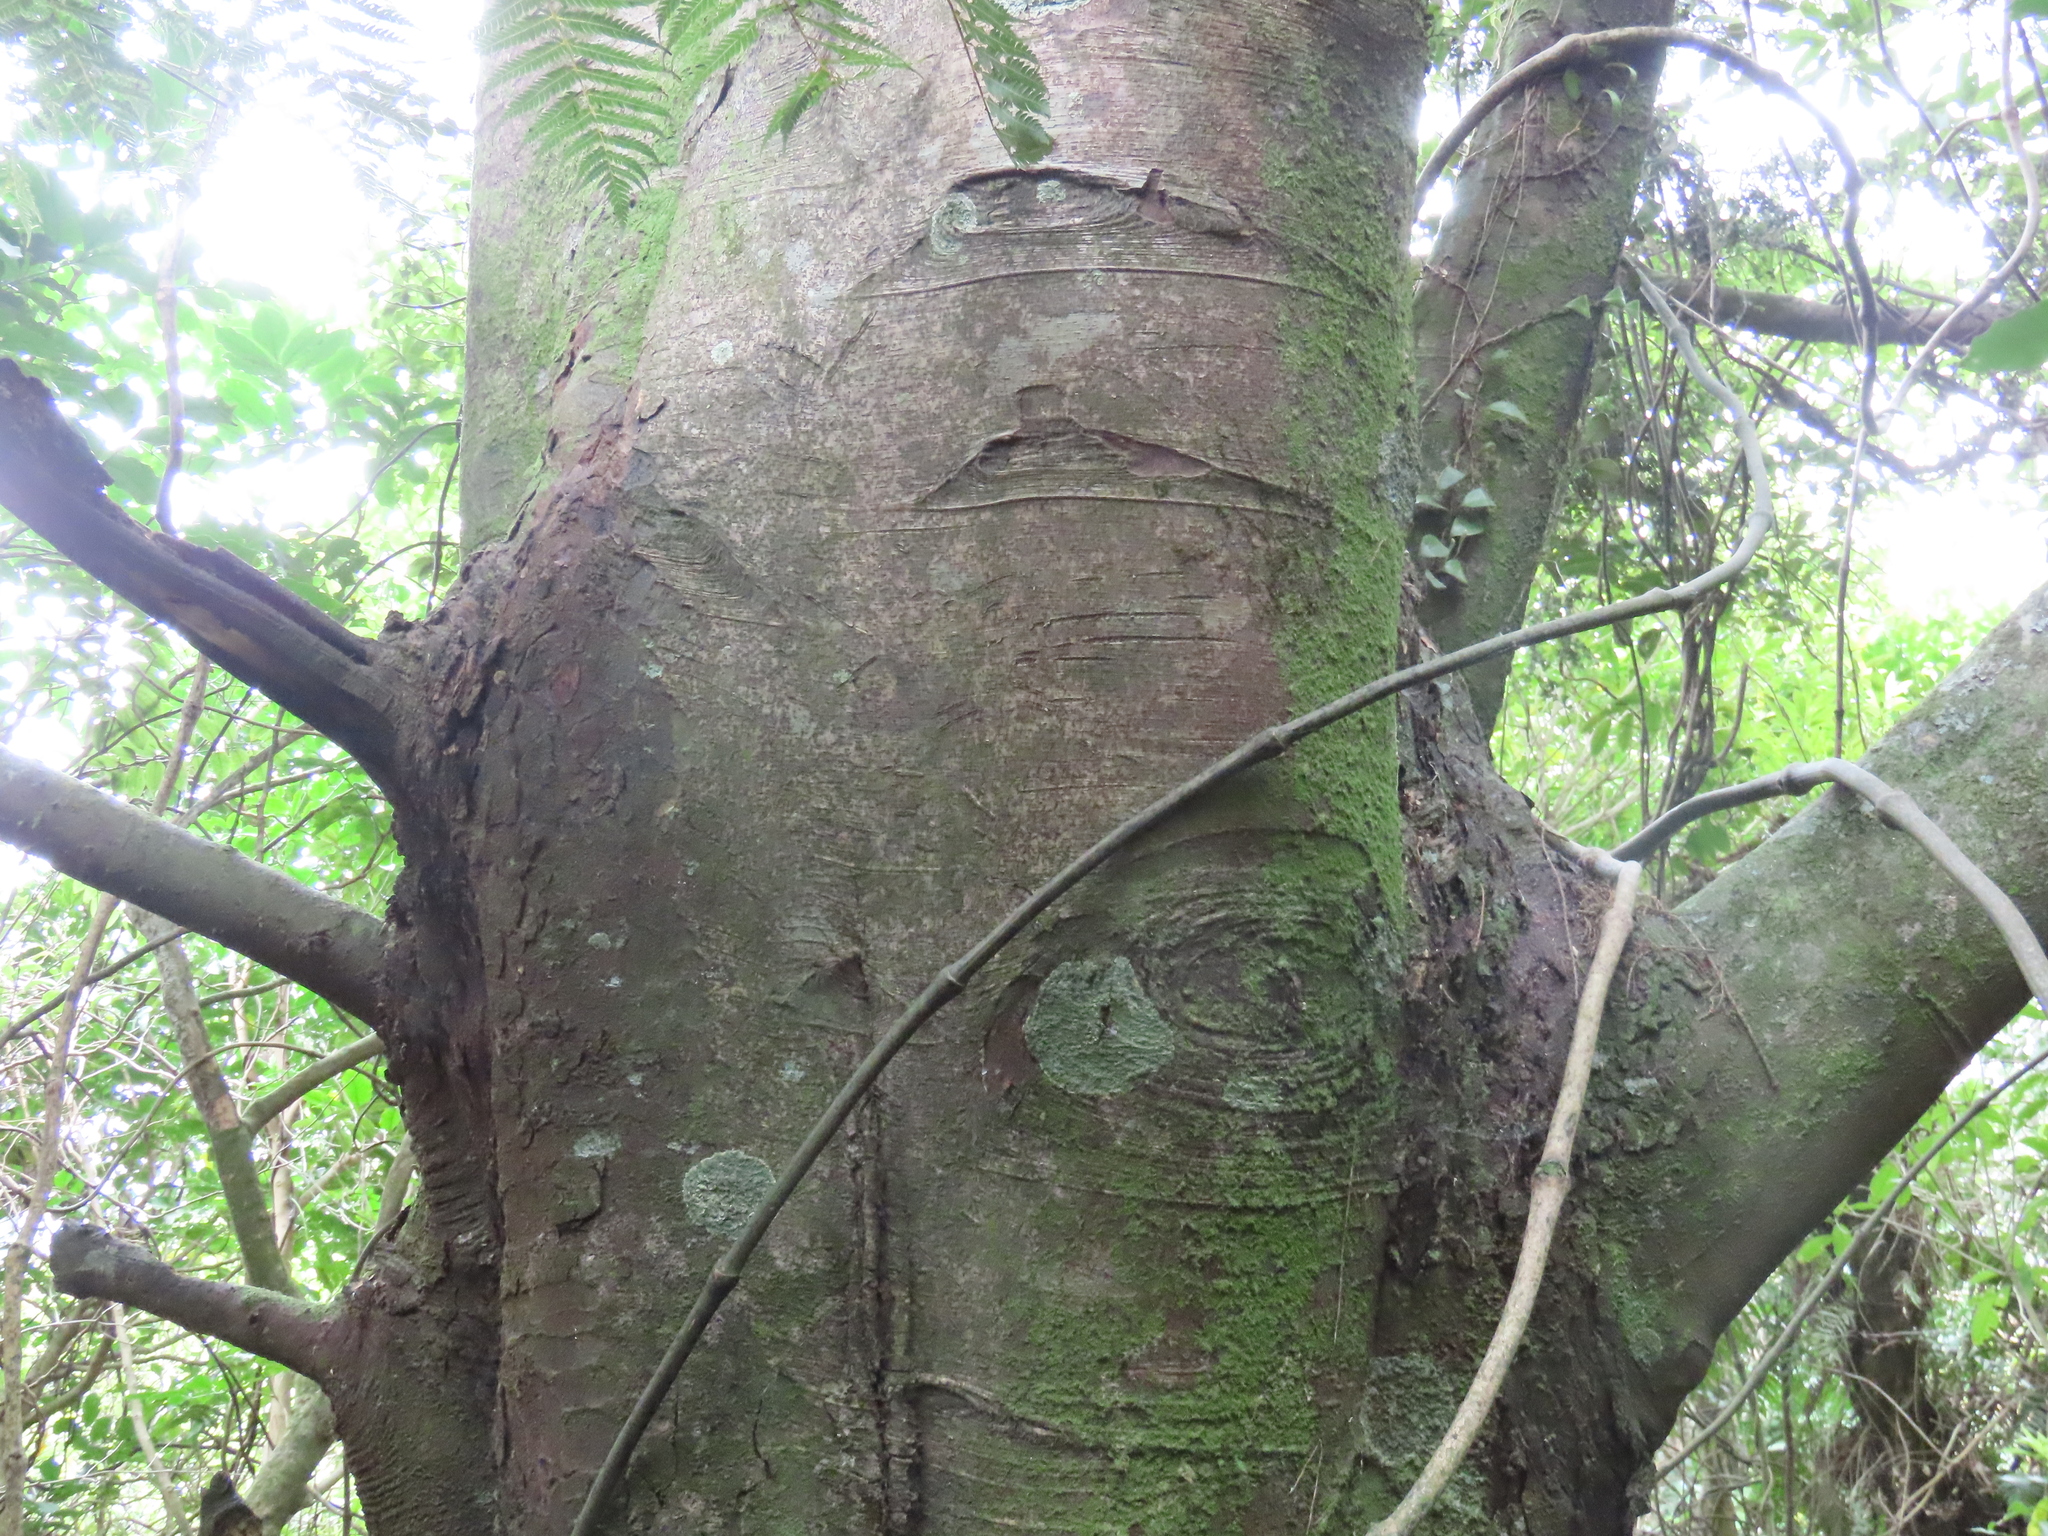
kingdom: Plantae
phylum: Tracheophyta
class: Pinopsida
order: Pinales
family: Podocarpaceae
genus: Dacrycarpus
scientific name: Dacrycarpus dacrydioides
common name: White pine
